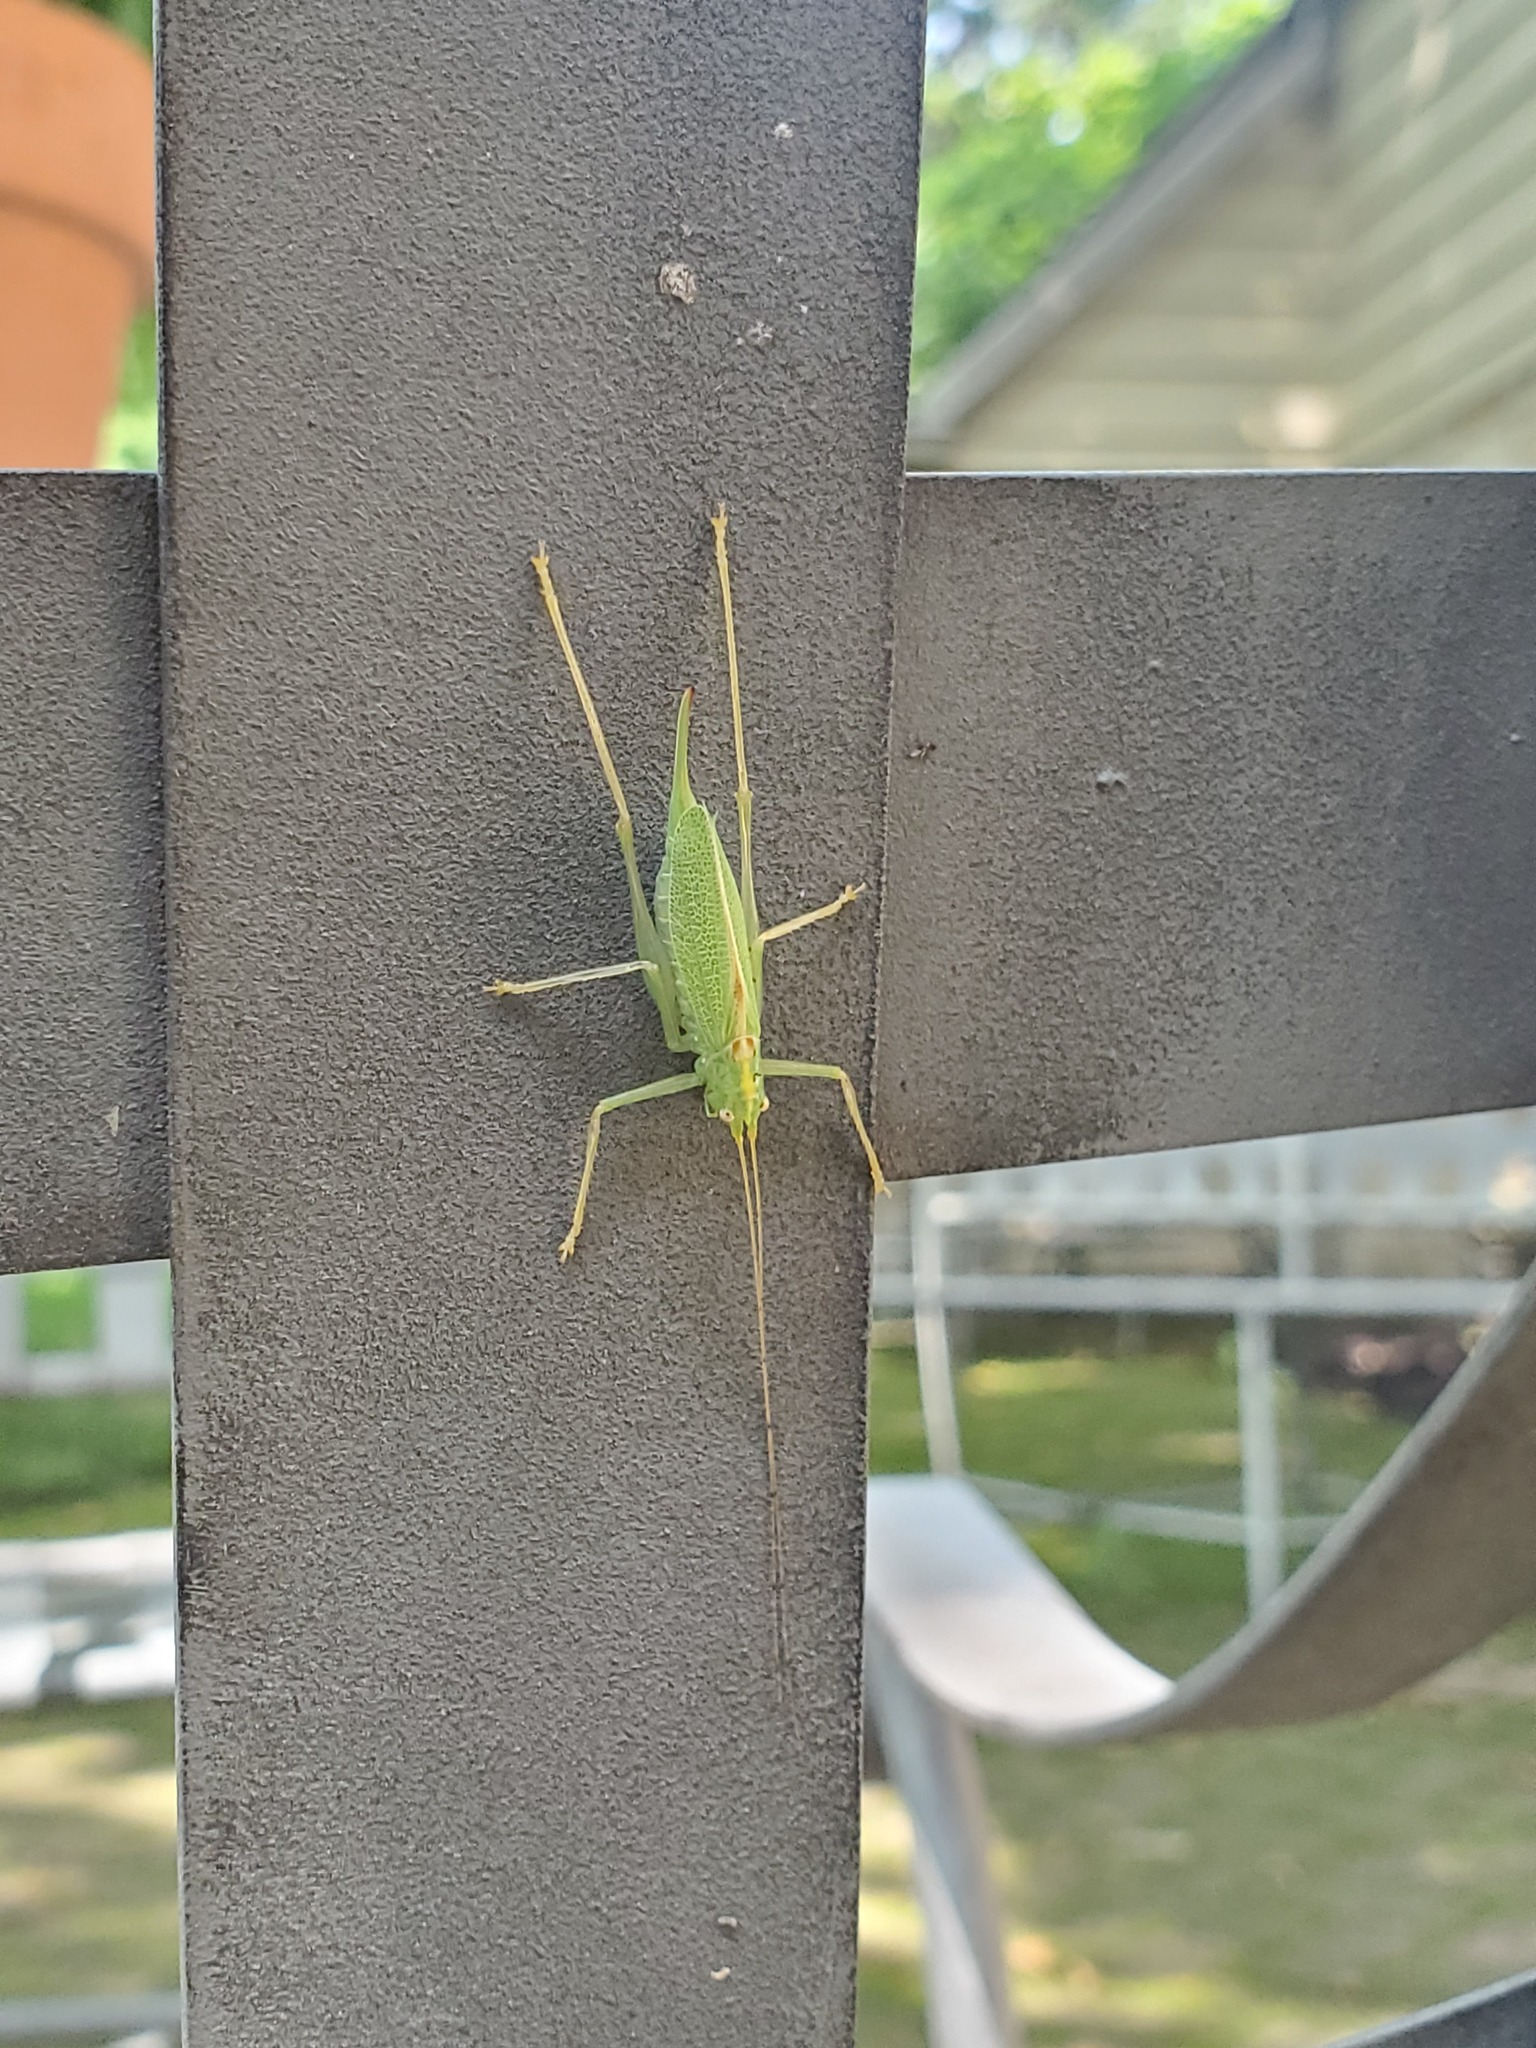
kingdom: Animalia
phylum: Arthropoda
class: Insecta
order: Orthoptera
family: Tettigoniidae
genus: Meconema
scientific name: Meconema thalassinum
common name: Oak bush-cricket
